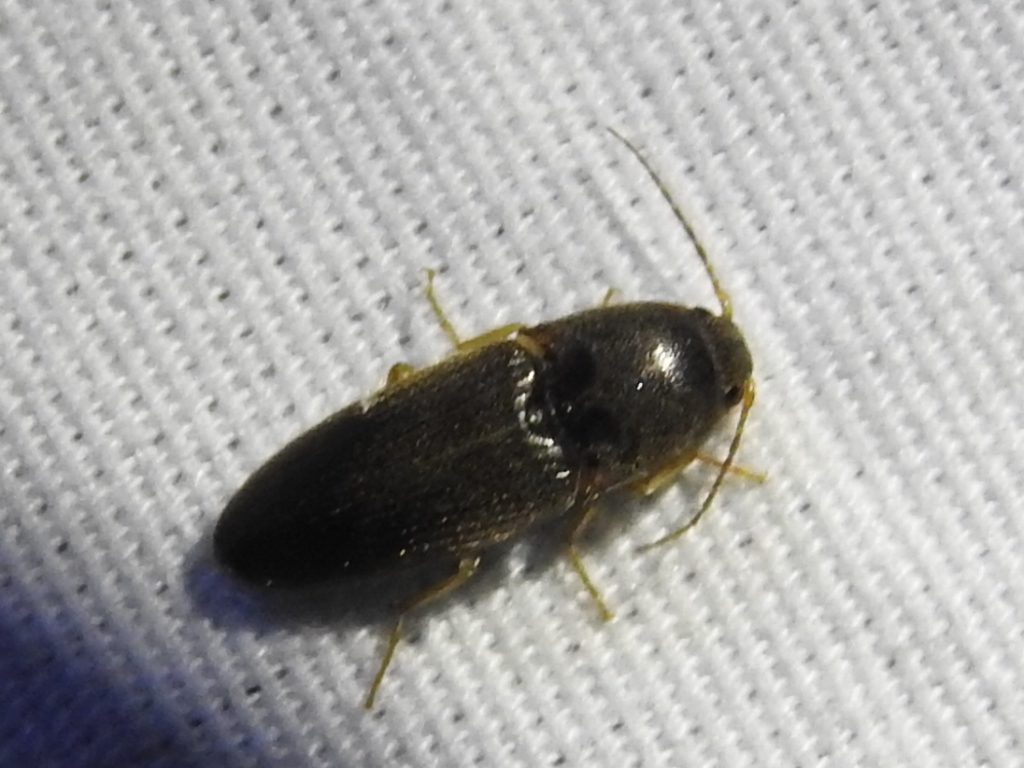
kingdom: Animalia
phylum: Arthropoda
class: Insecta
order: Coleoptera
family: Elateridae
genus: Monocrepidius
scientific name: Monocrepidius
